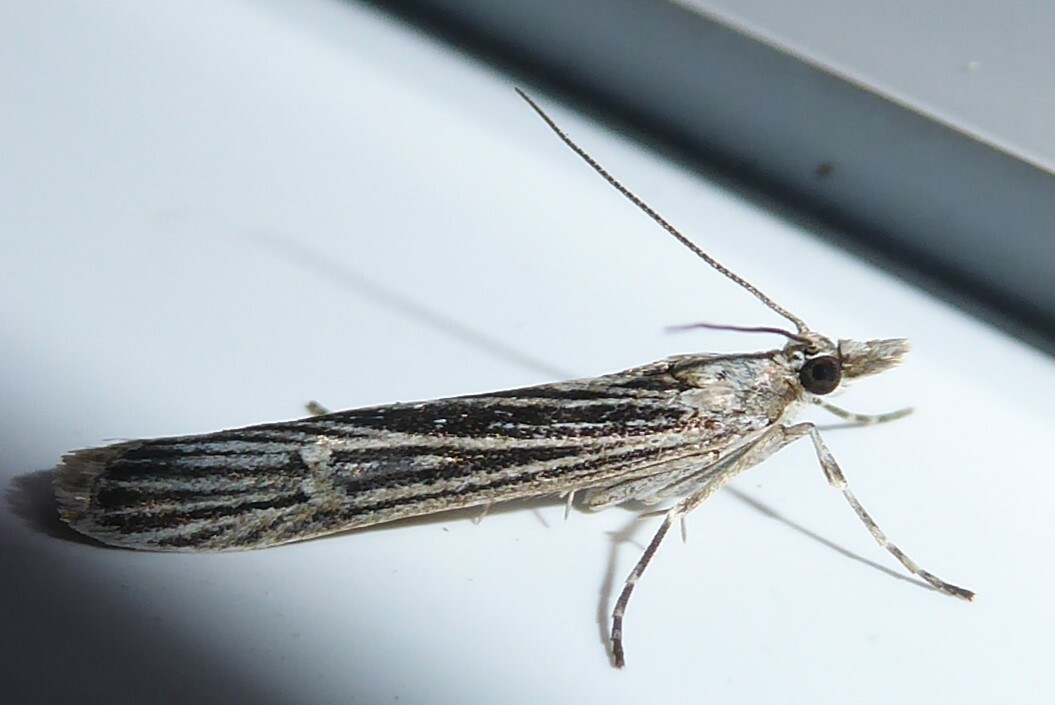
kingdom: Animalia
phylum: Arthropoda
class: Insecta
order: Lepidoptera
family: Crambidae
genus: Eudonia
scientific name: Eudonia atmogramma
